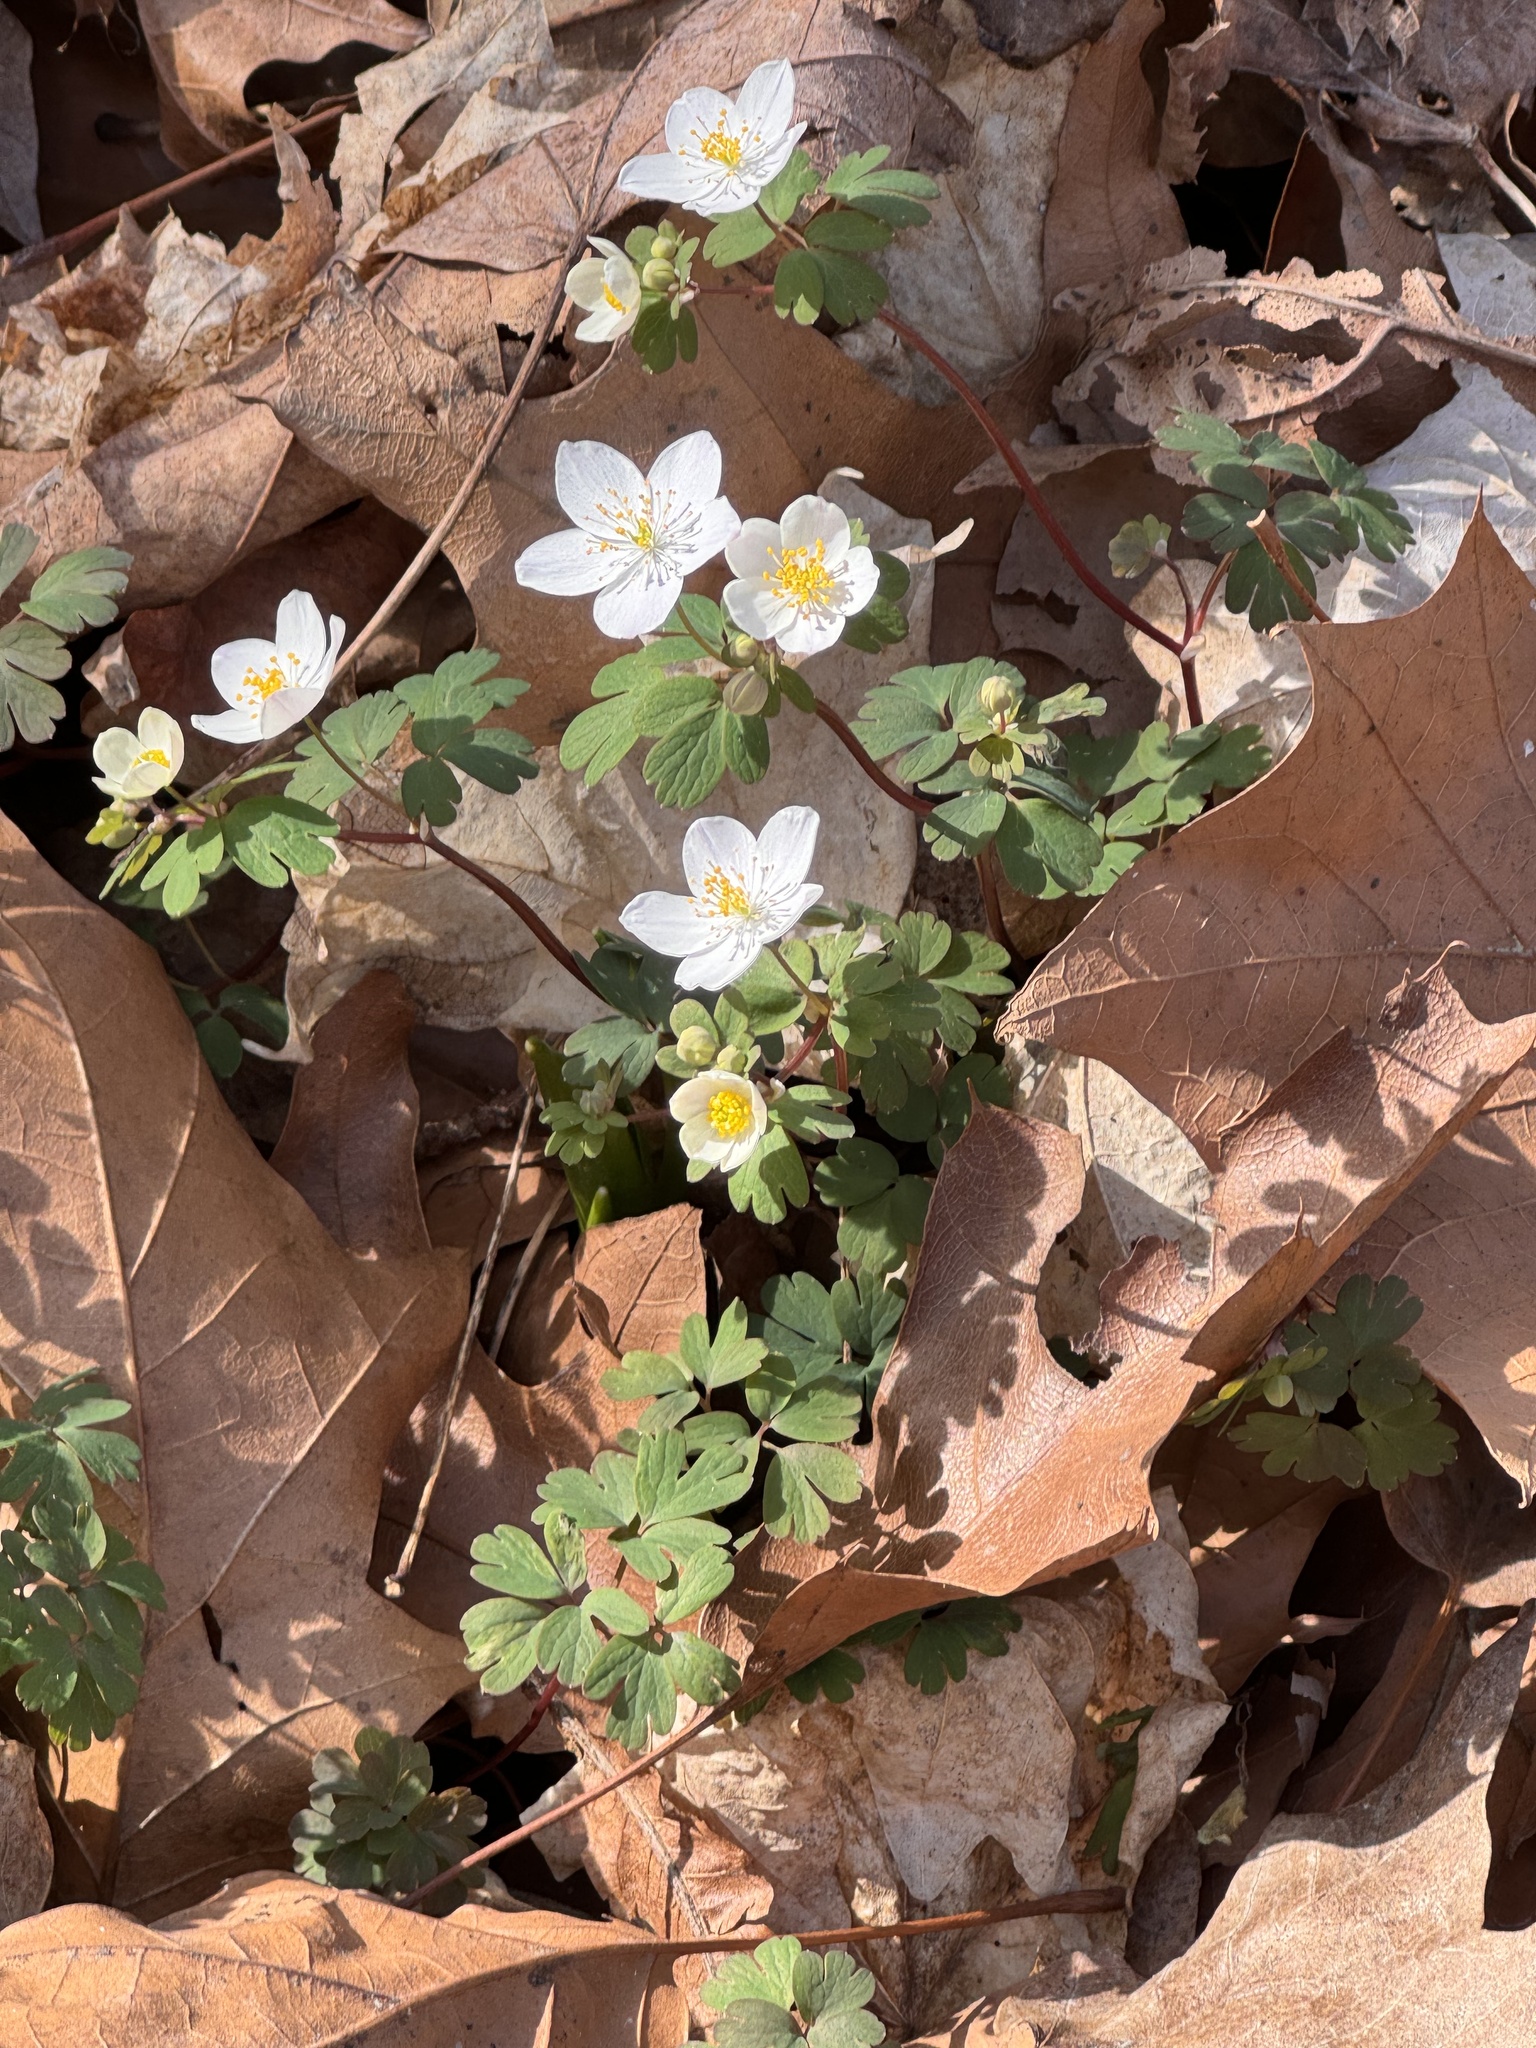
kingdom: Plantae
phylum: Tracheophyta
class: Magnoliopsida
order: Ranunculales
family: Ranunculaceae
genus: Enemion
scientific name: Enemion biternatum
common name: Eastern false rue-anemone
